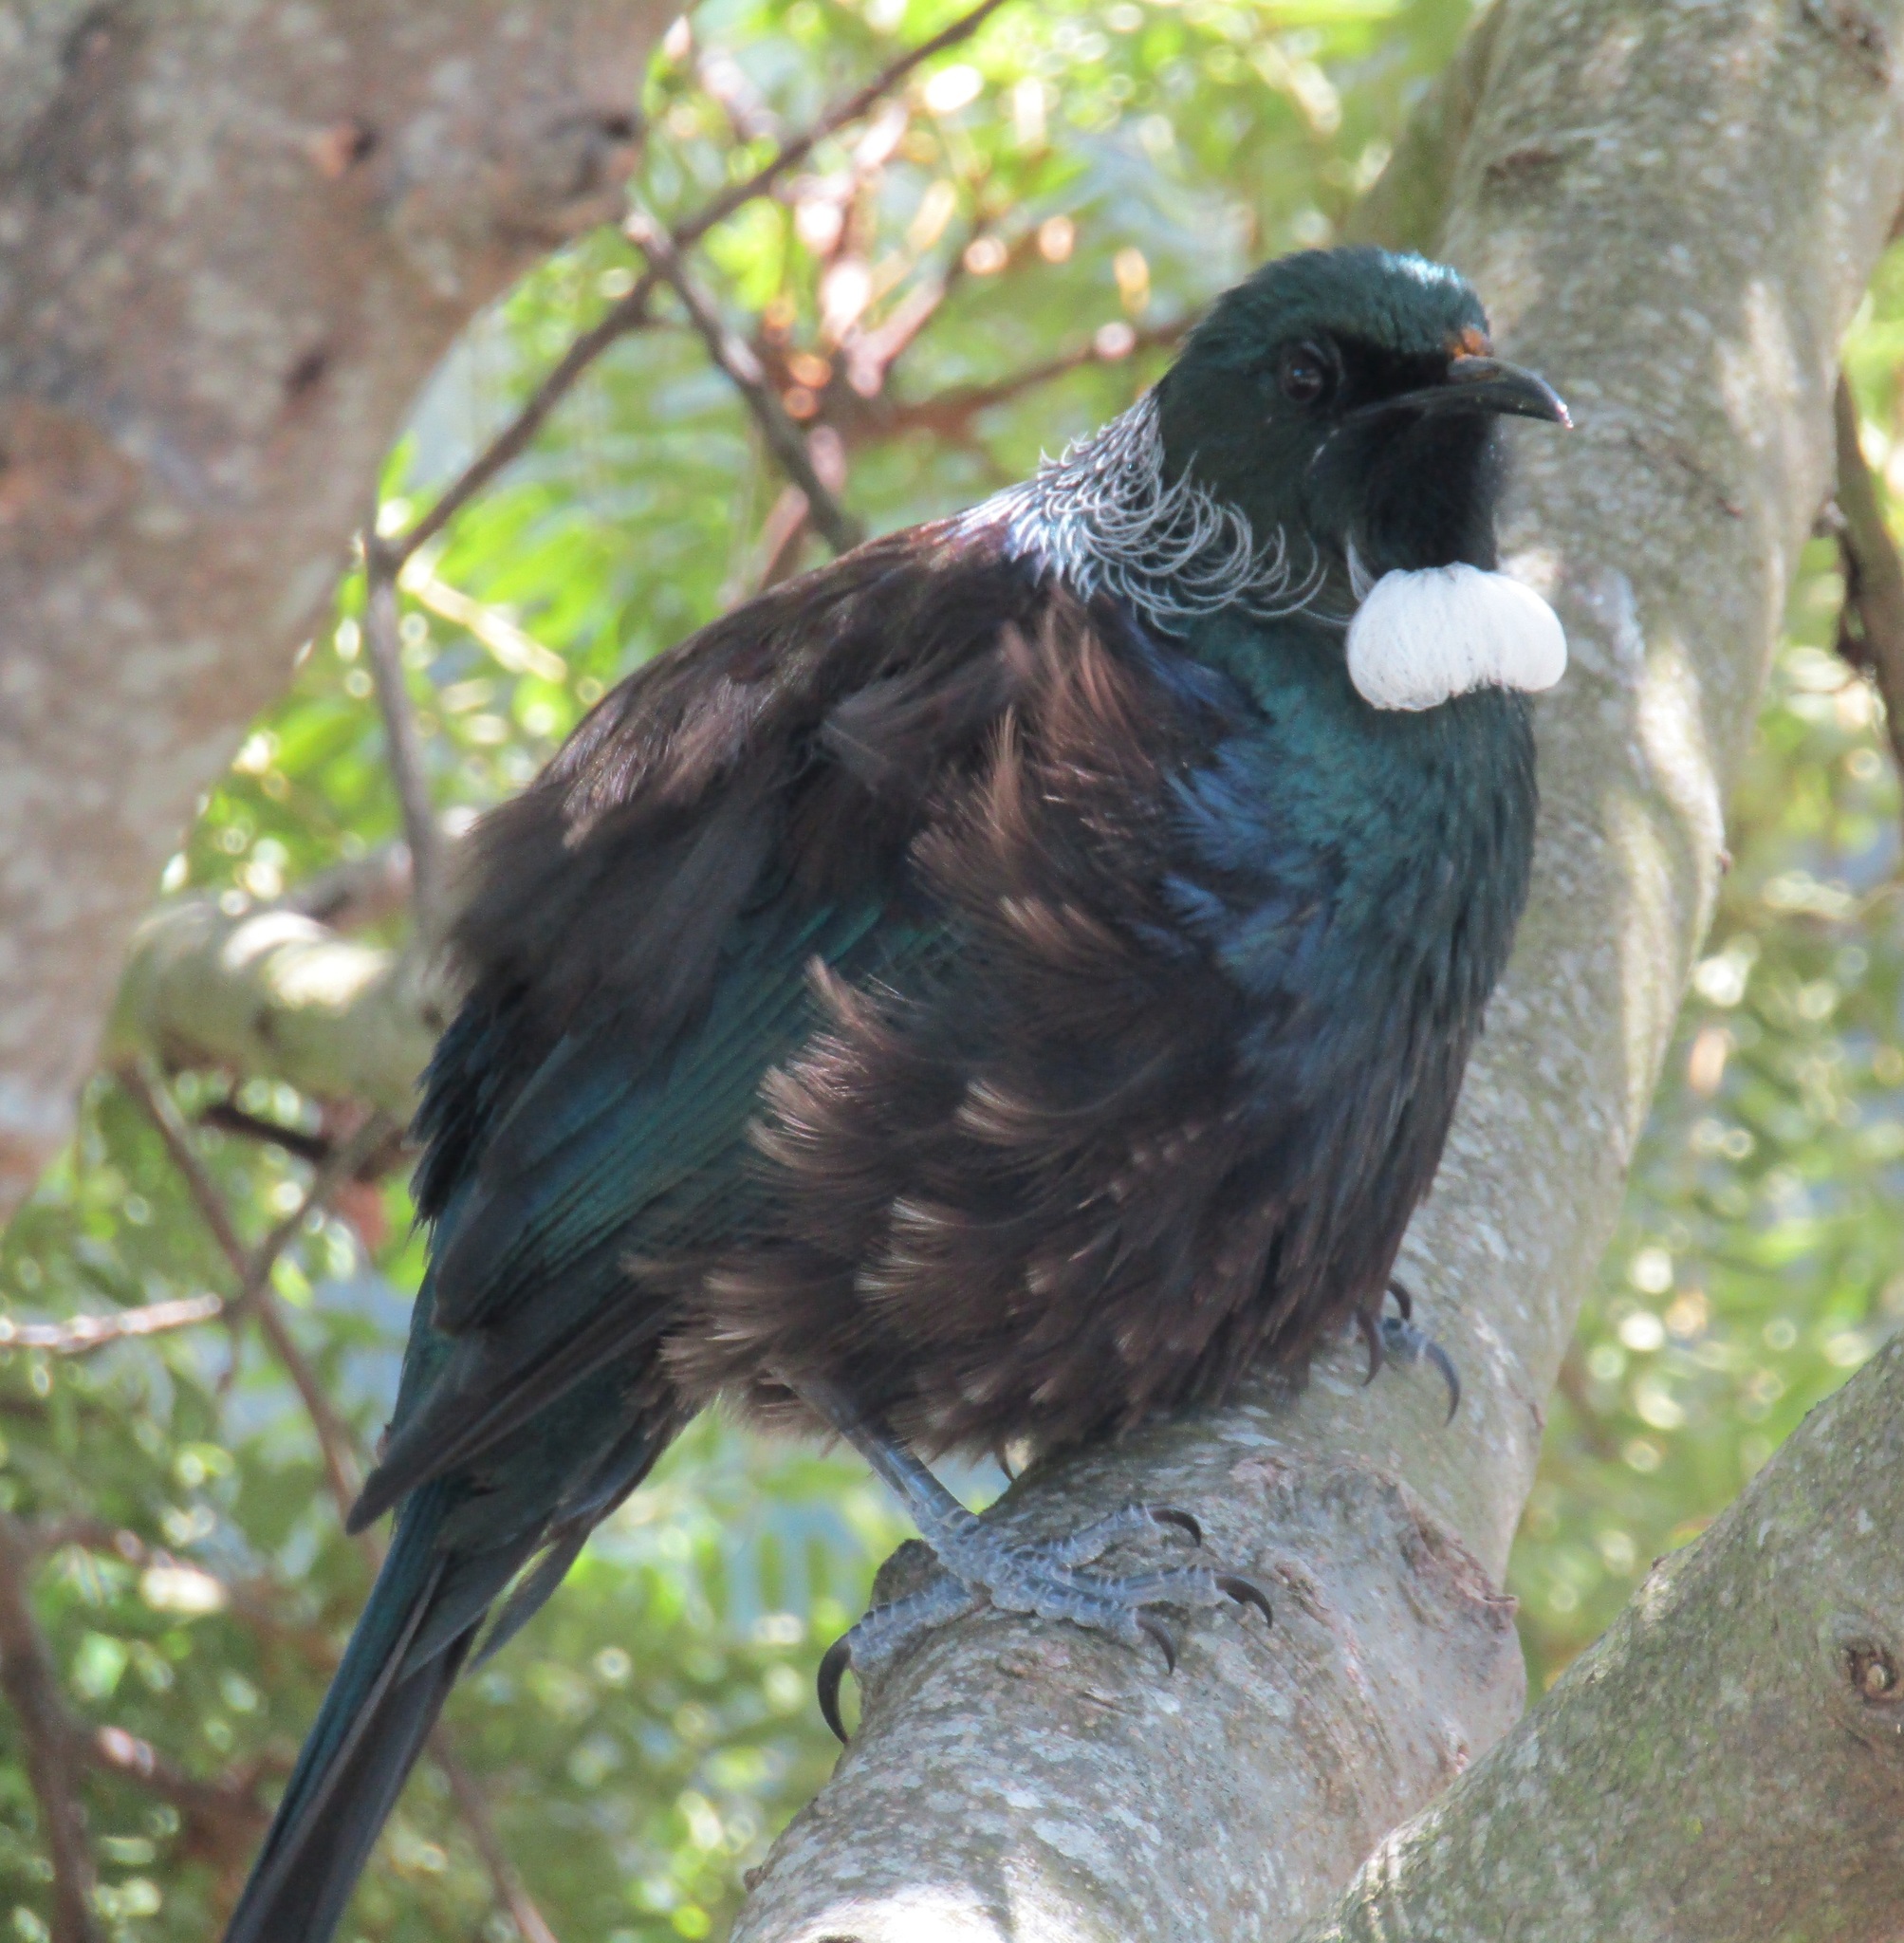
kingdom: Animalia
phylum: Chordata
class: Aves
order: Passeriformes
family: Meliphagidae
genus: Prosthemadera
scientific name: Prosthemadera novaeseelandiae
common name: Tui
